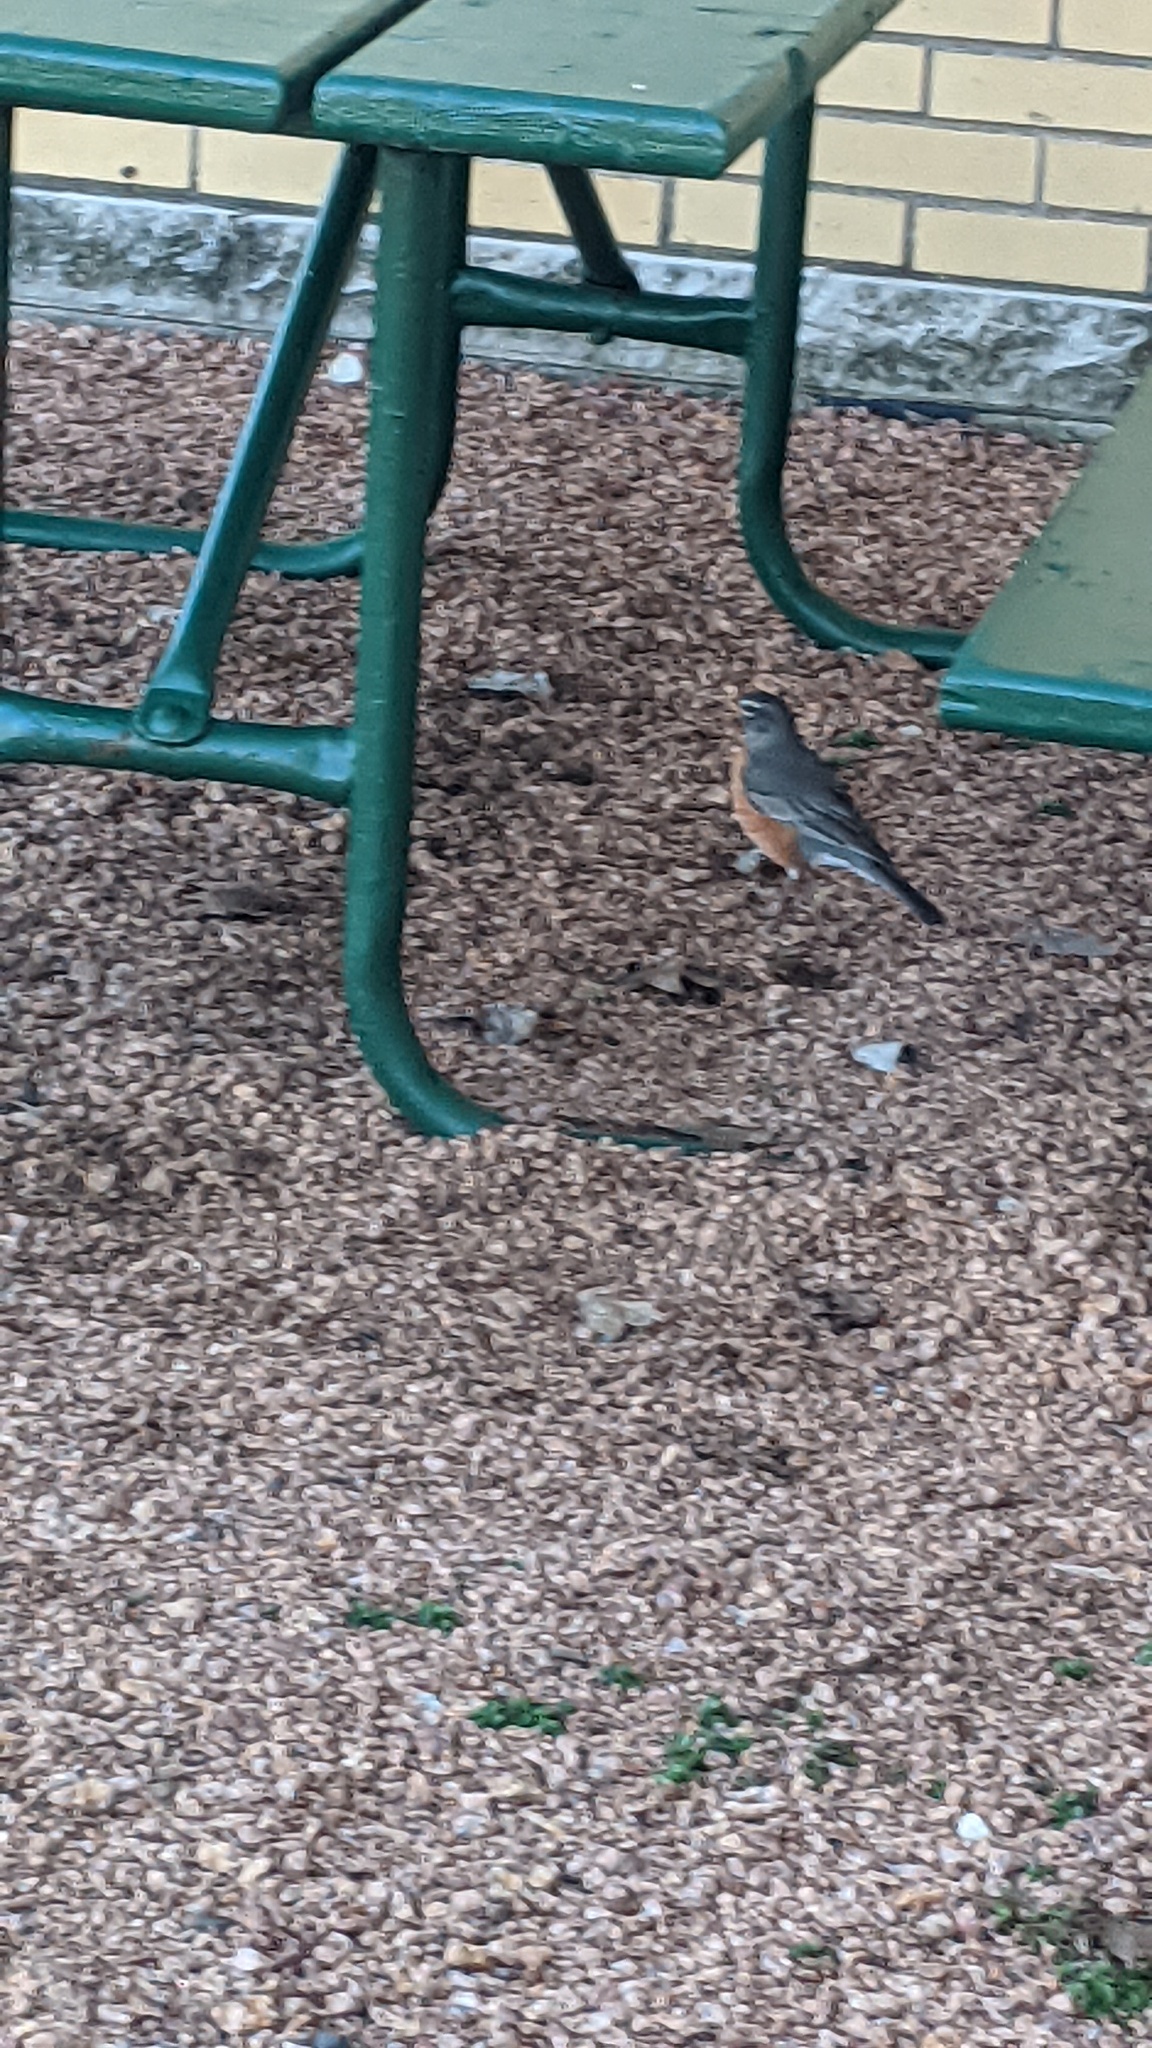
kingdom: Animalia
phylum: Chordata
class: Aves
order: Passeriformes
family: Turdidae
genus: Turdus
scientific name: Turdus migratorius
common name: American robin
